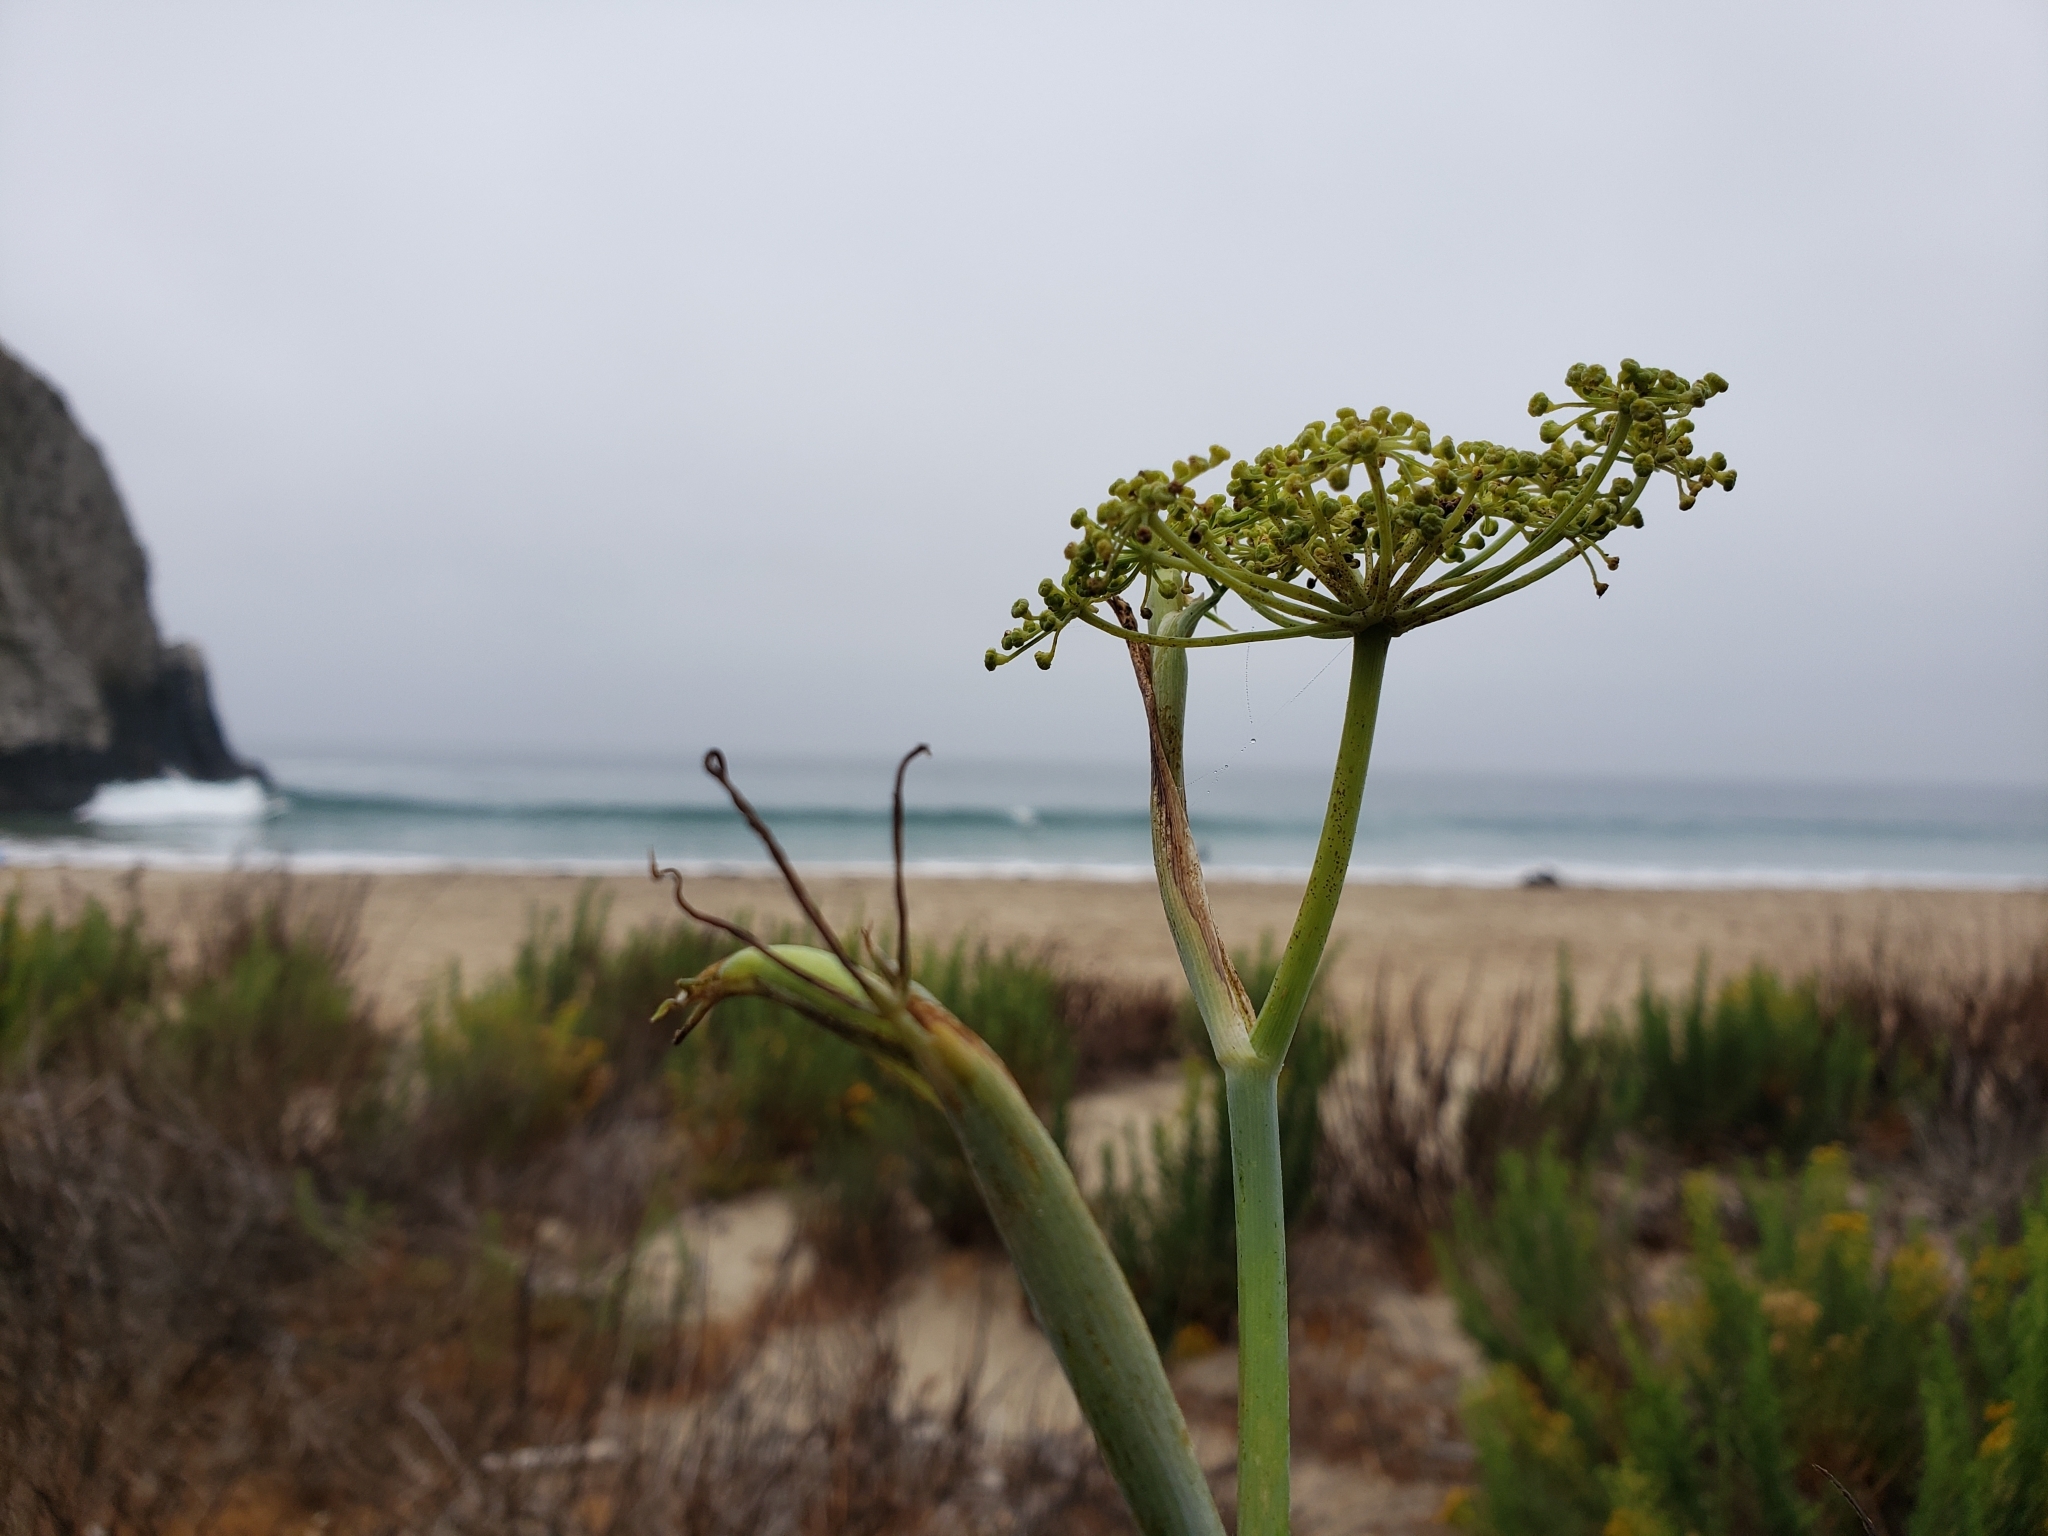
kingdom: Plantae
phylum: Tracheophyta
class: Magnoliopsida
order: Apiales
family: Apiaceae
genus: Foeniculum
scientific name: Foeniculum vulgare
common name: Fennel
